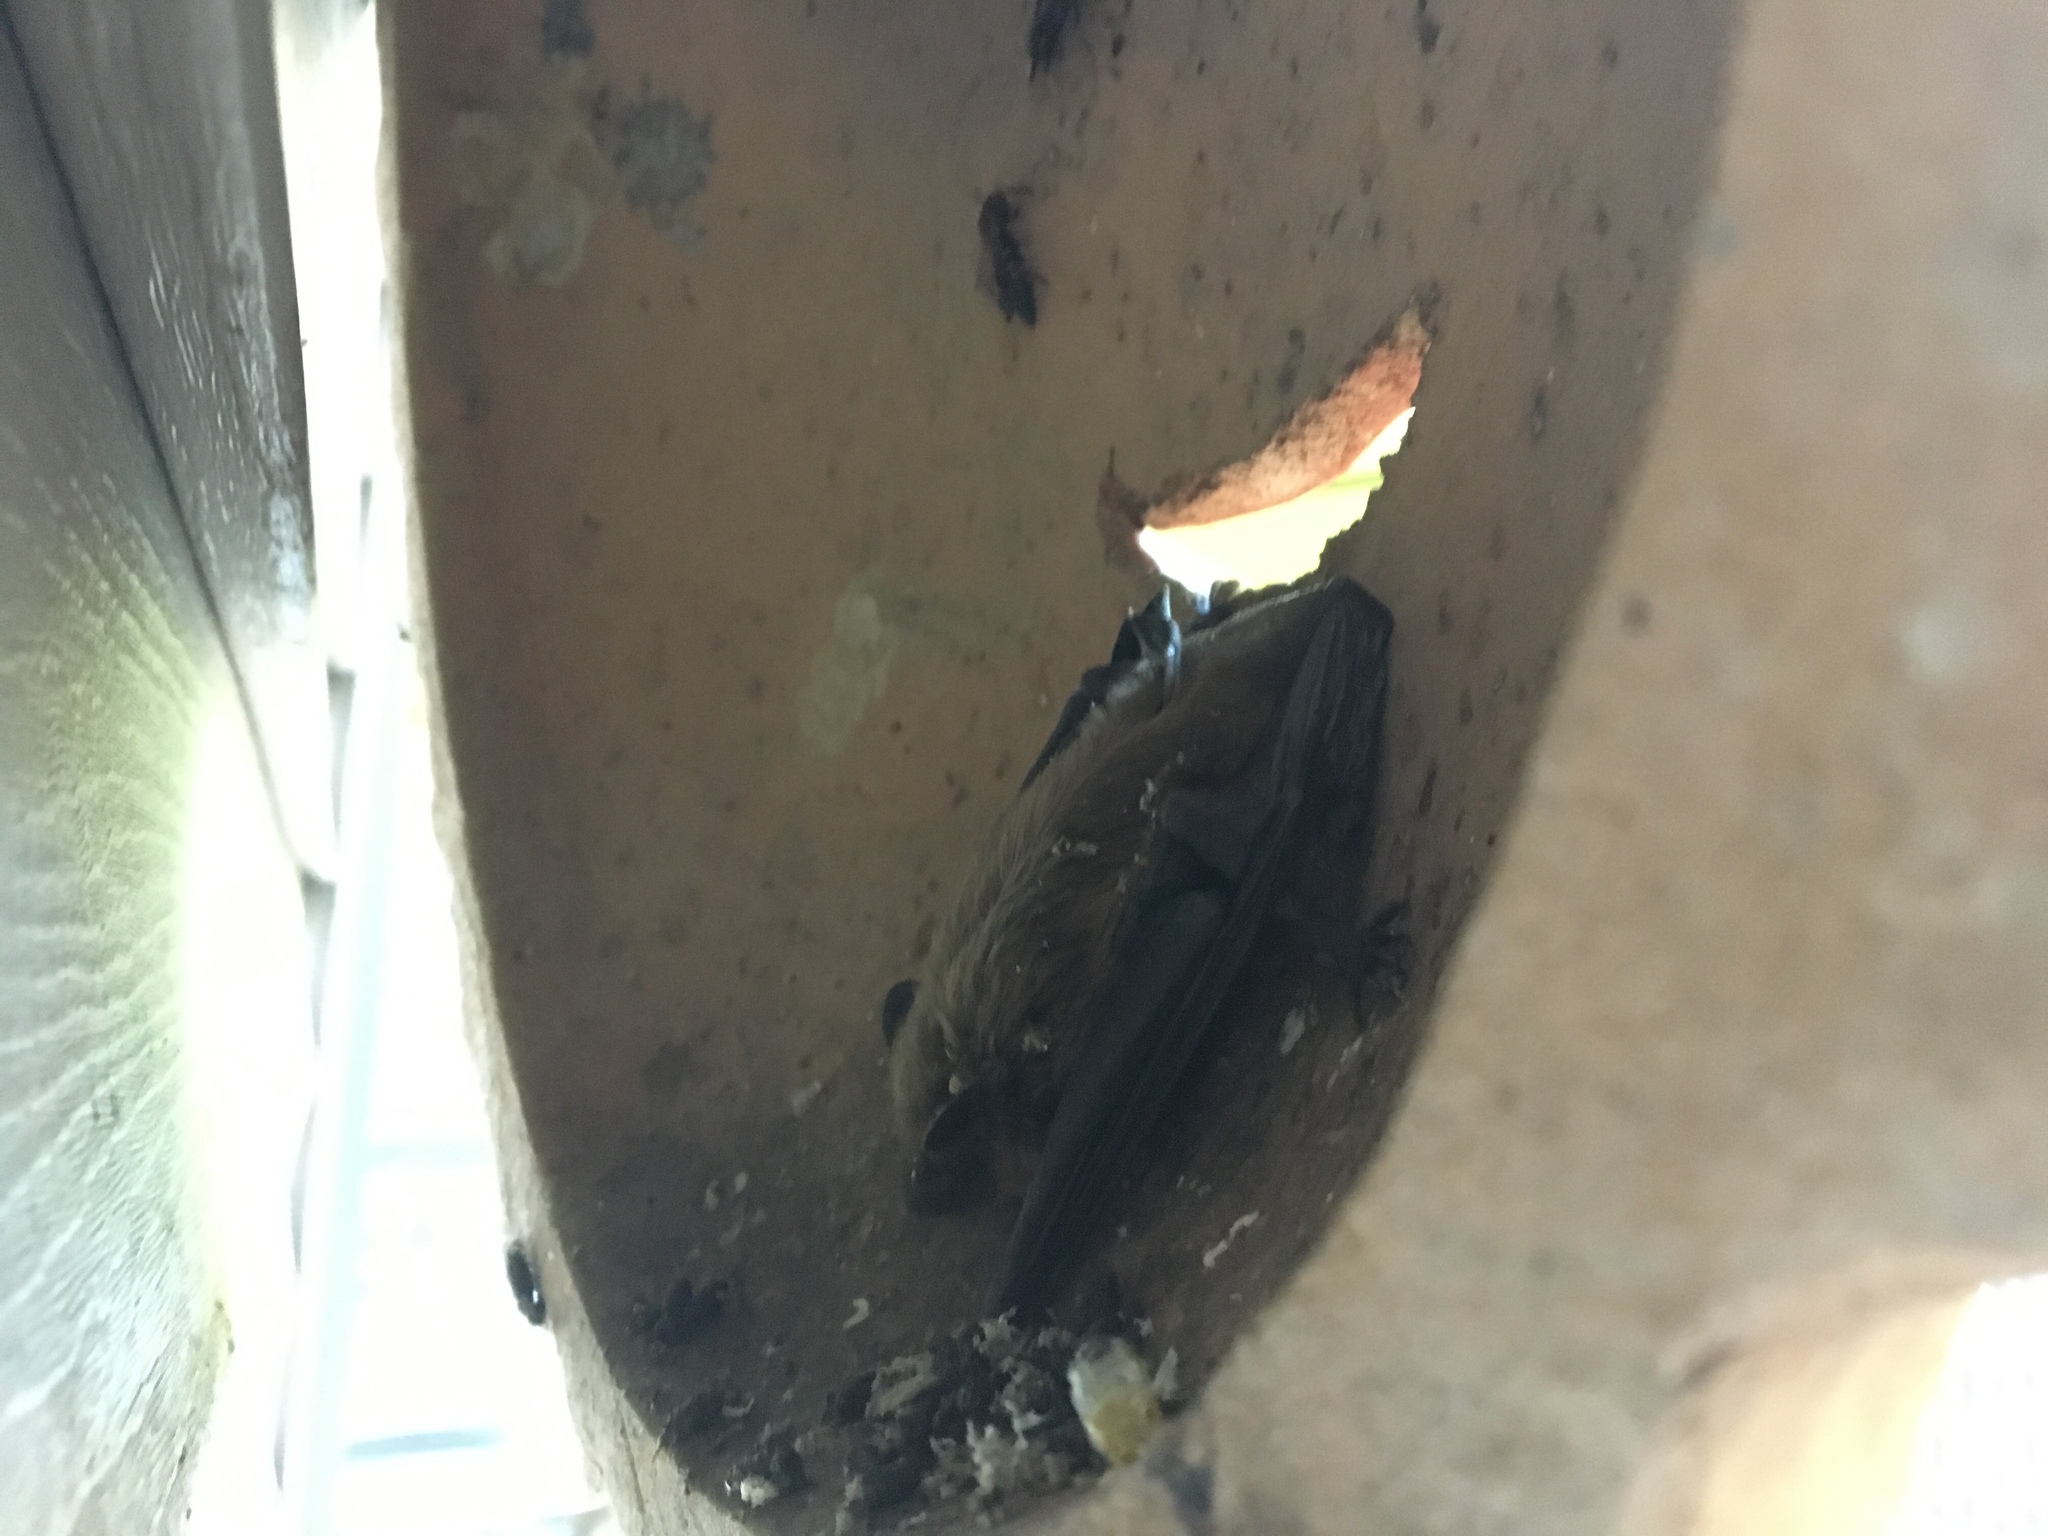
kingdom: Animalia
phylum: Chordata
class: Mammalia
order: Chiroptera
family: Vespertilionidae
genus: Eptesicus
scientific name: Eptesicus fuscus
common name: Big brown bat
